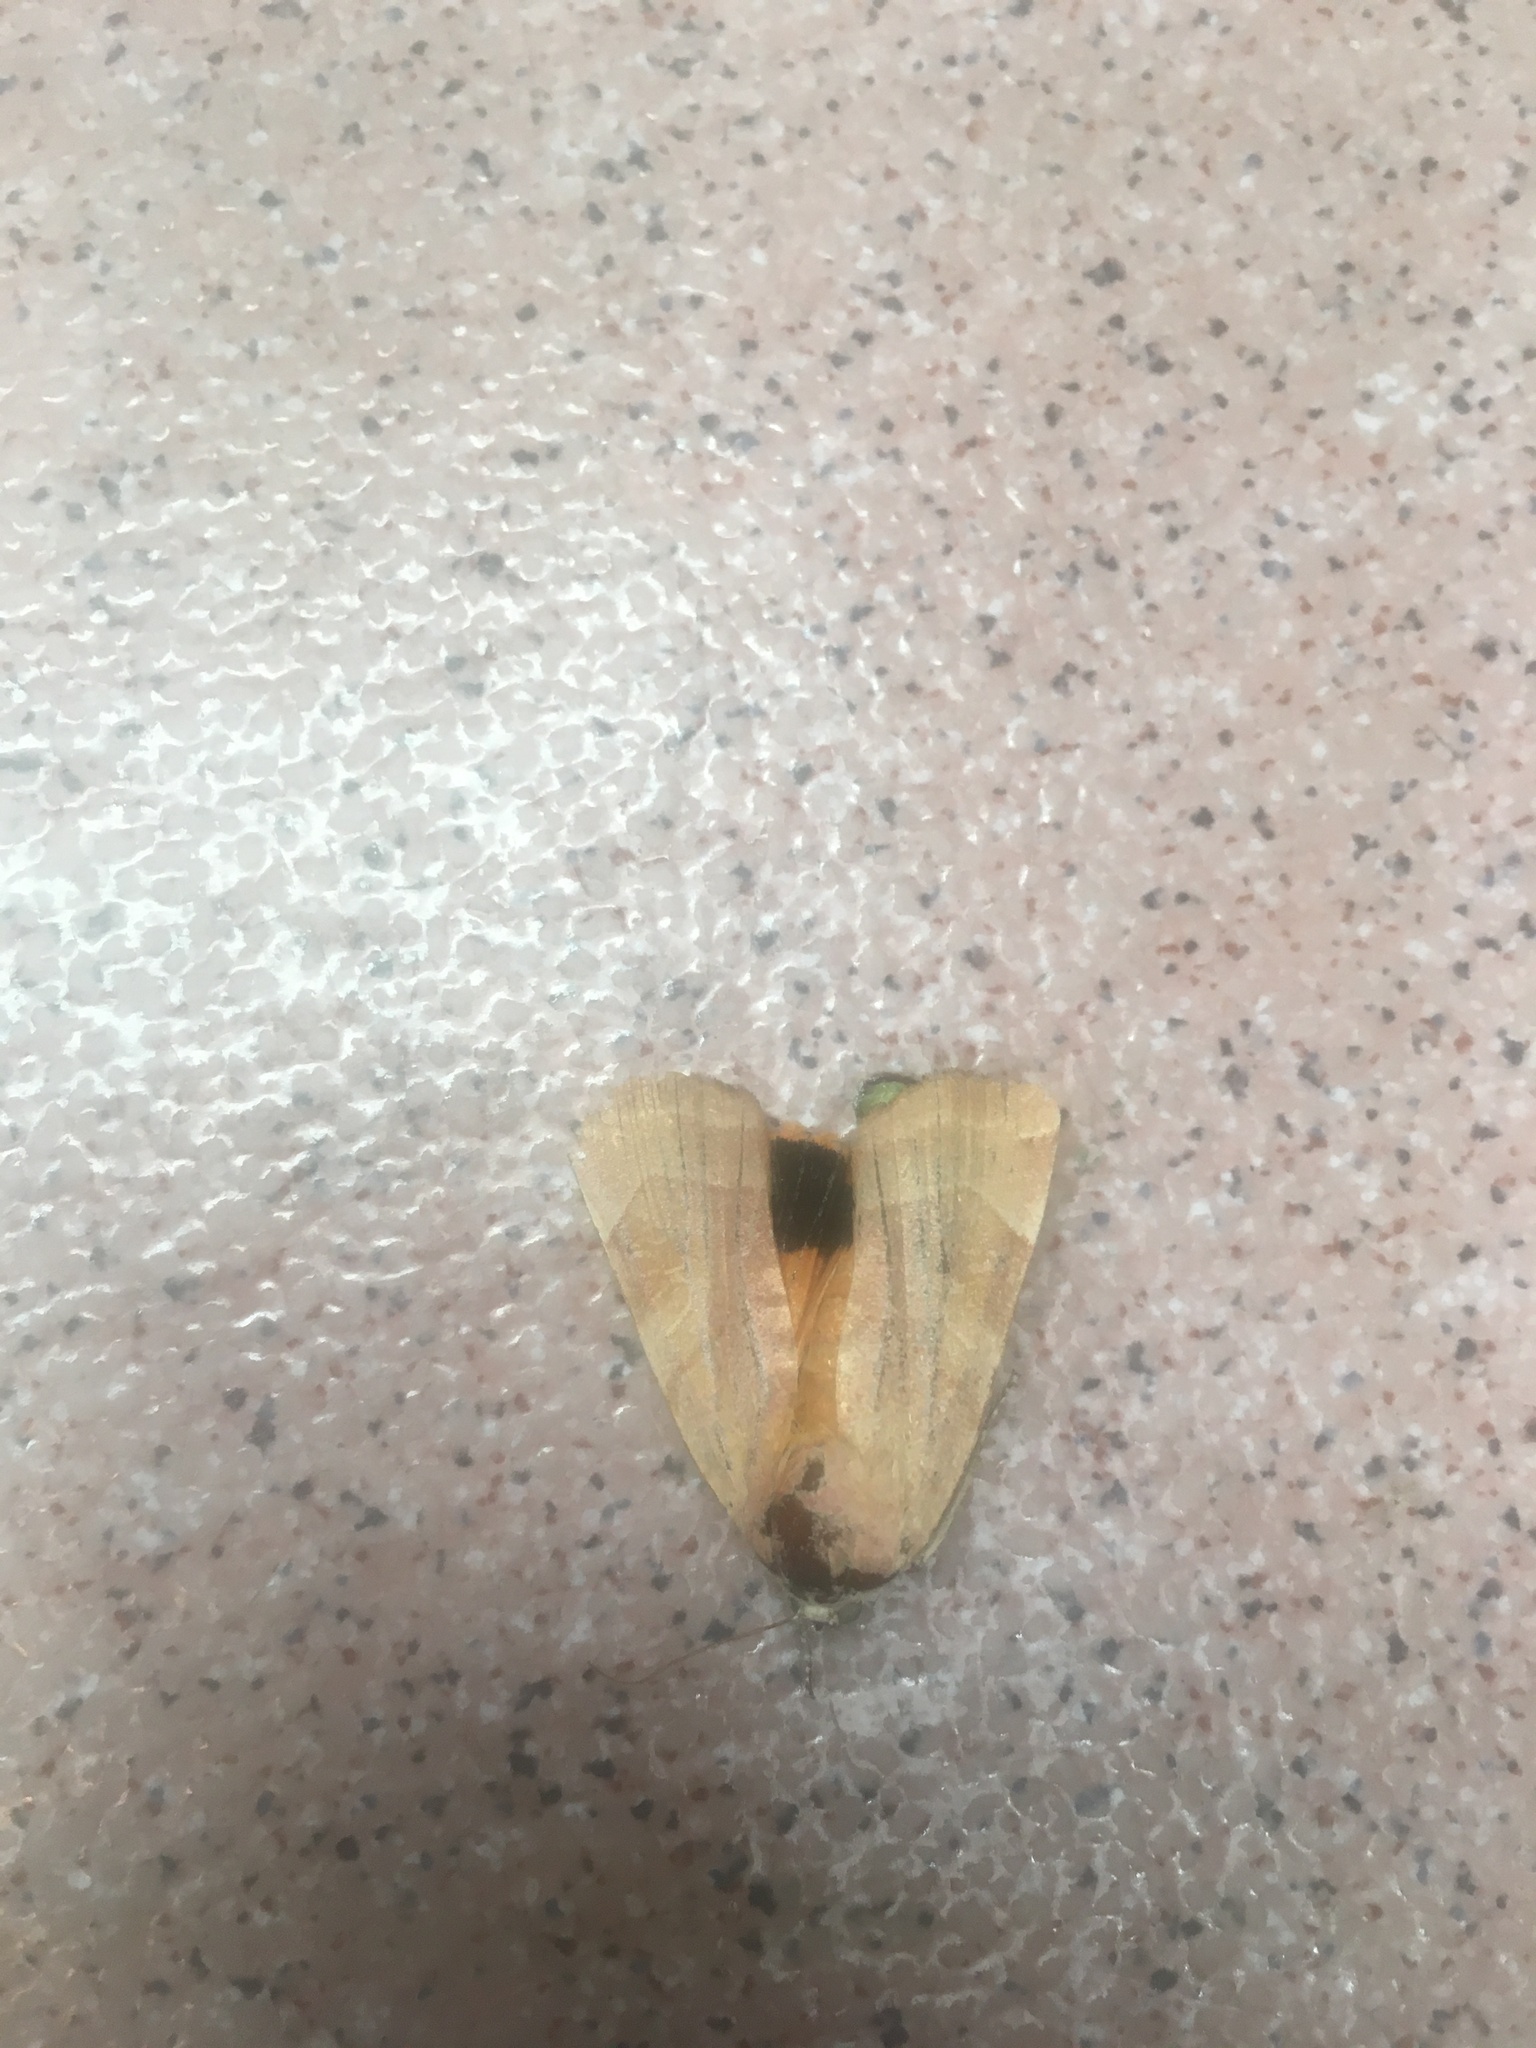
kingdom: Animalia
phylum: Arthropoda
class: Insecta
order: Lepidoptera
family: Noctuidae
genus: Noctua
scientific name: Noctua fimbriata
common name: Broad-bordered yellow underwing
